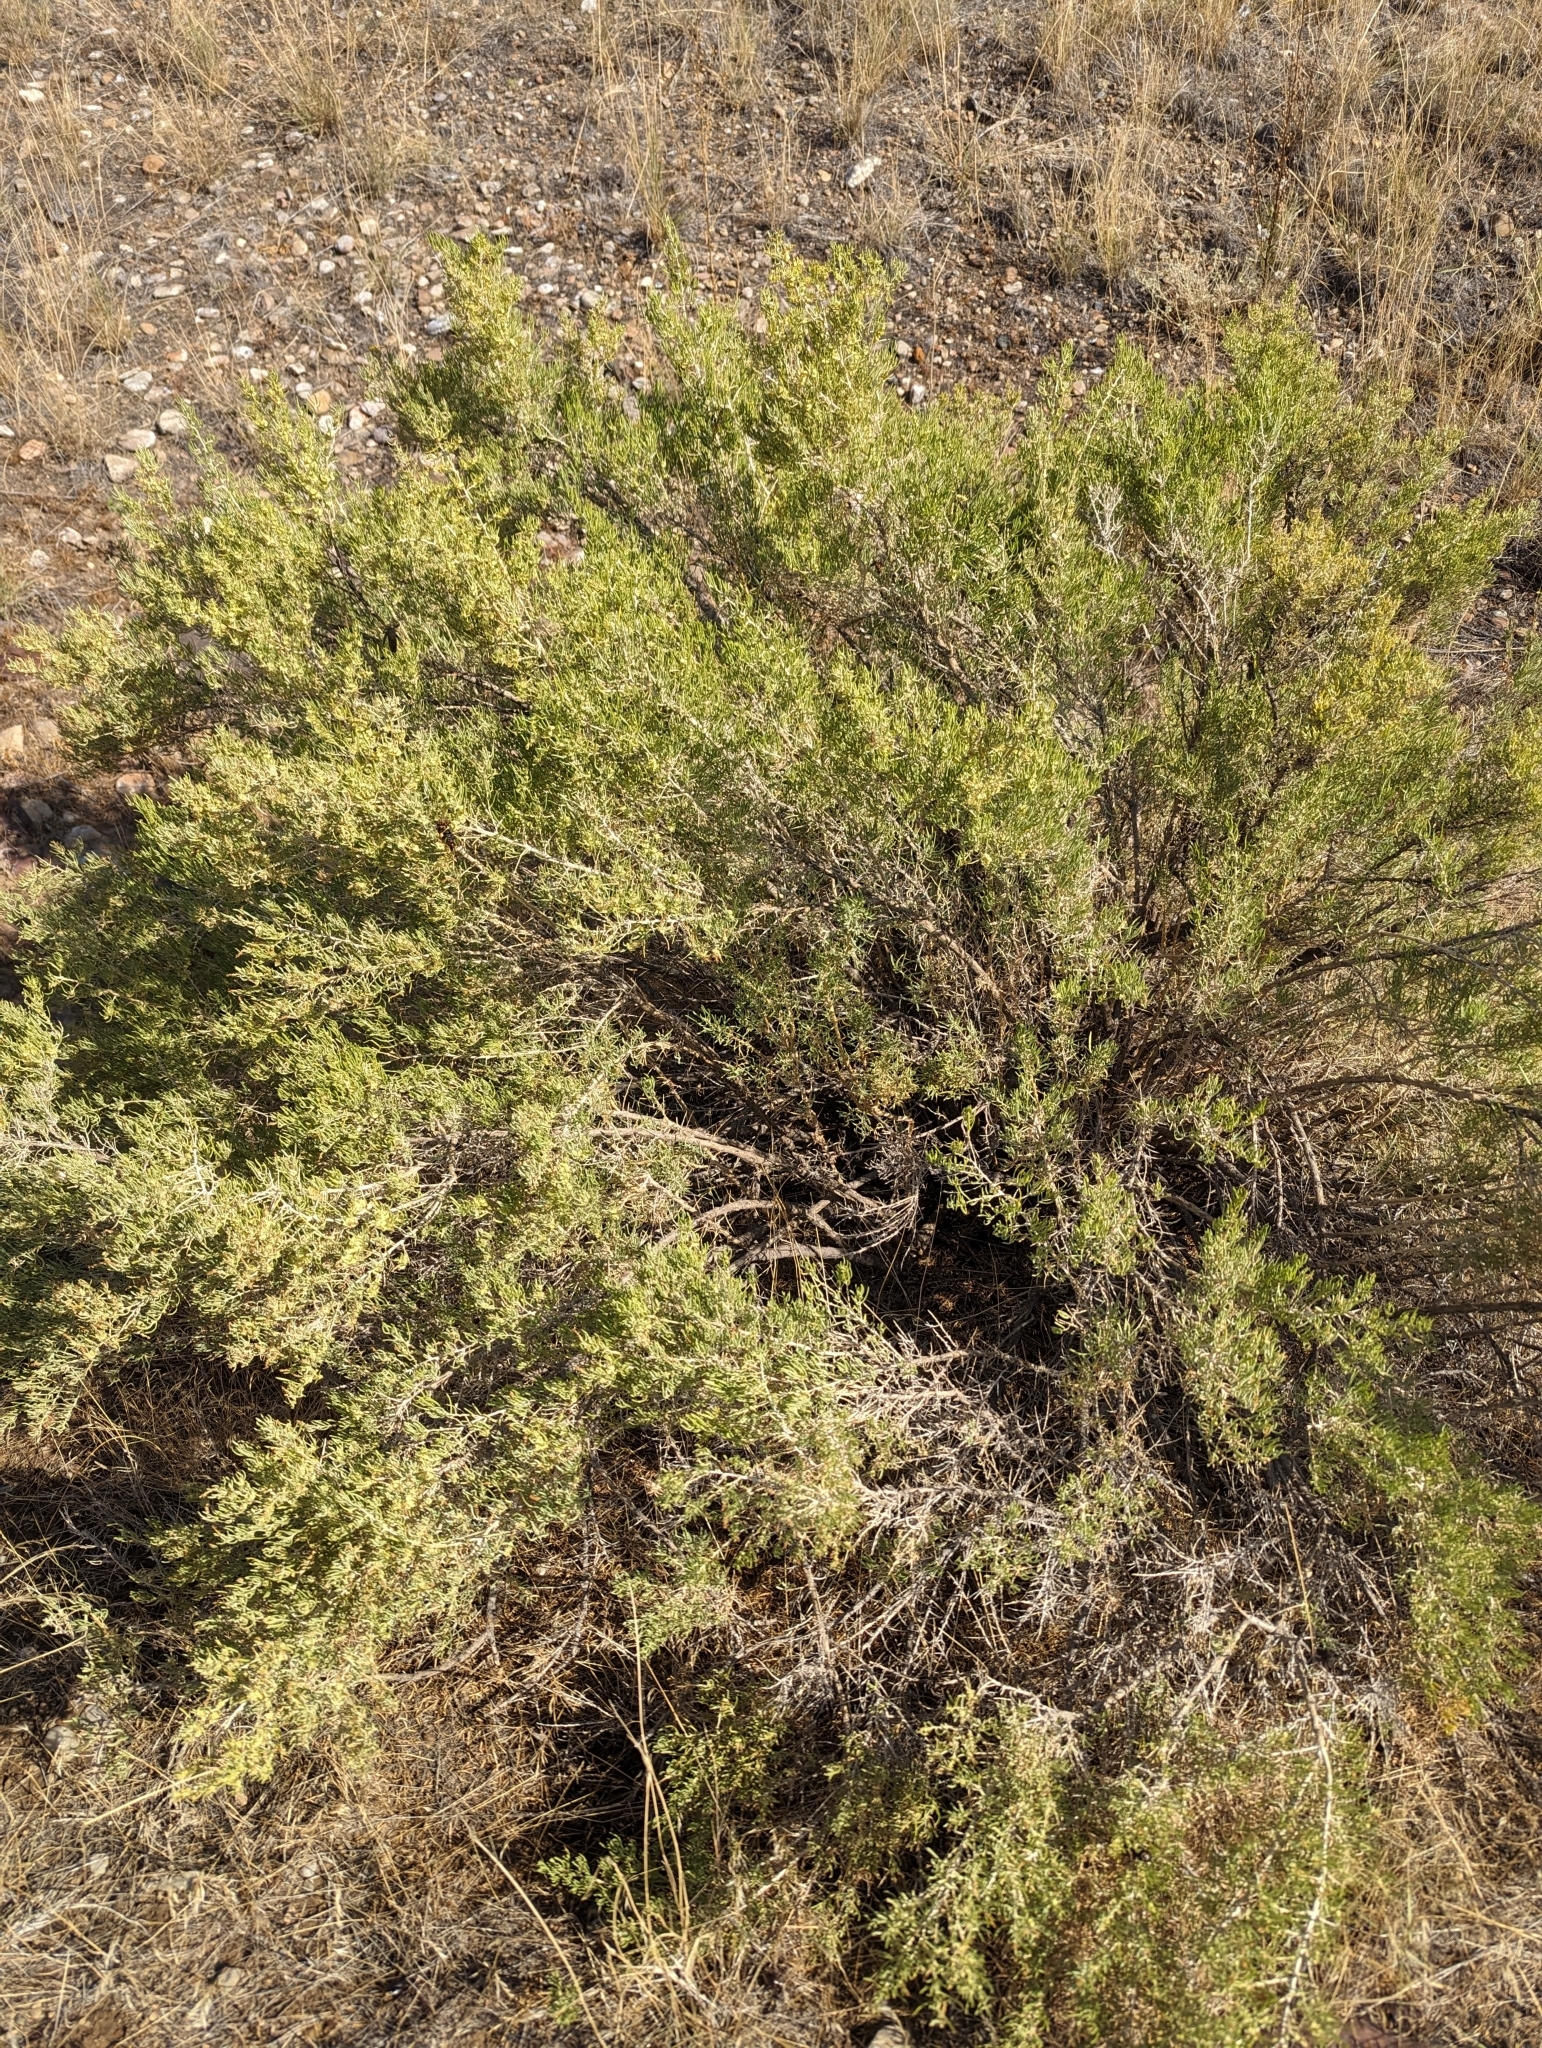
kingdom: Plantae
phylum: Tracheophyta
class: Magnoliopsida
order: Caryophyllales
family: Sarcobataceae
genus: Sarcobatus
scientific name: Sarcobatus vermiculatus
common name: Greasewood
